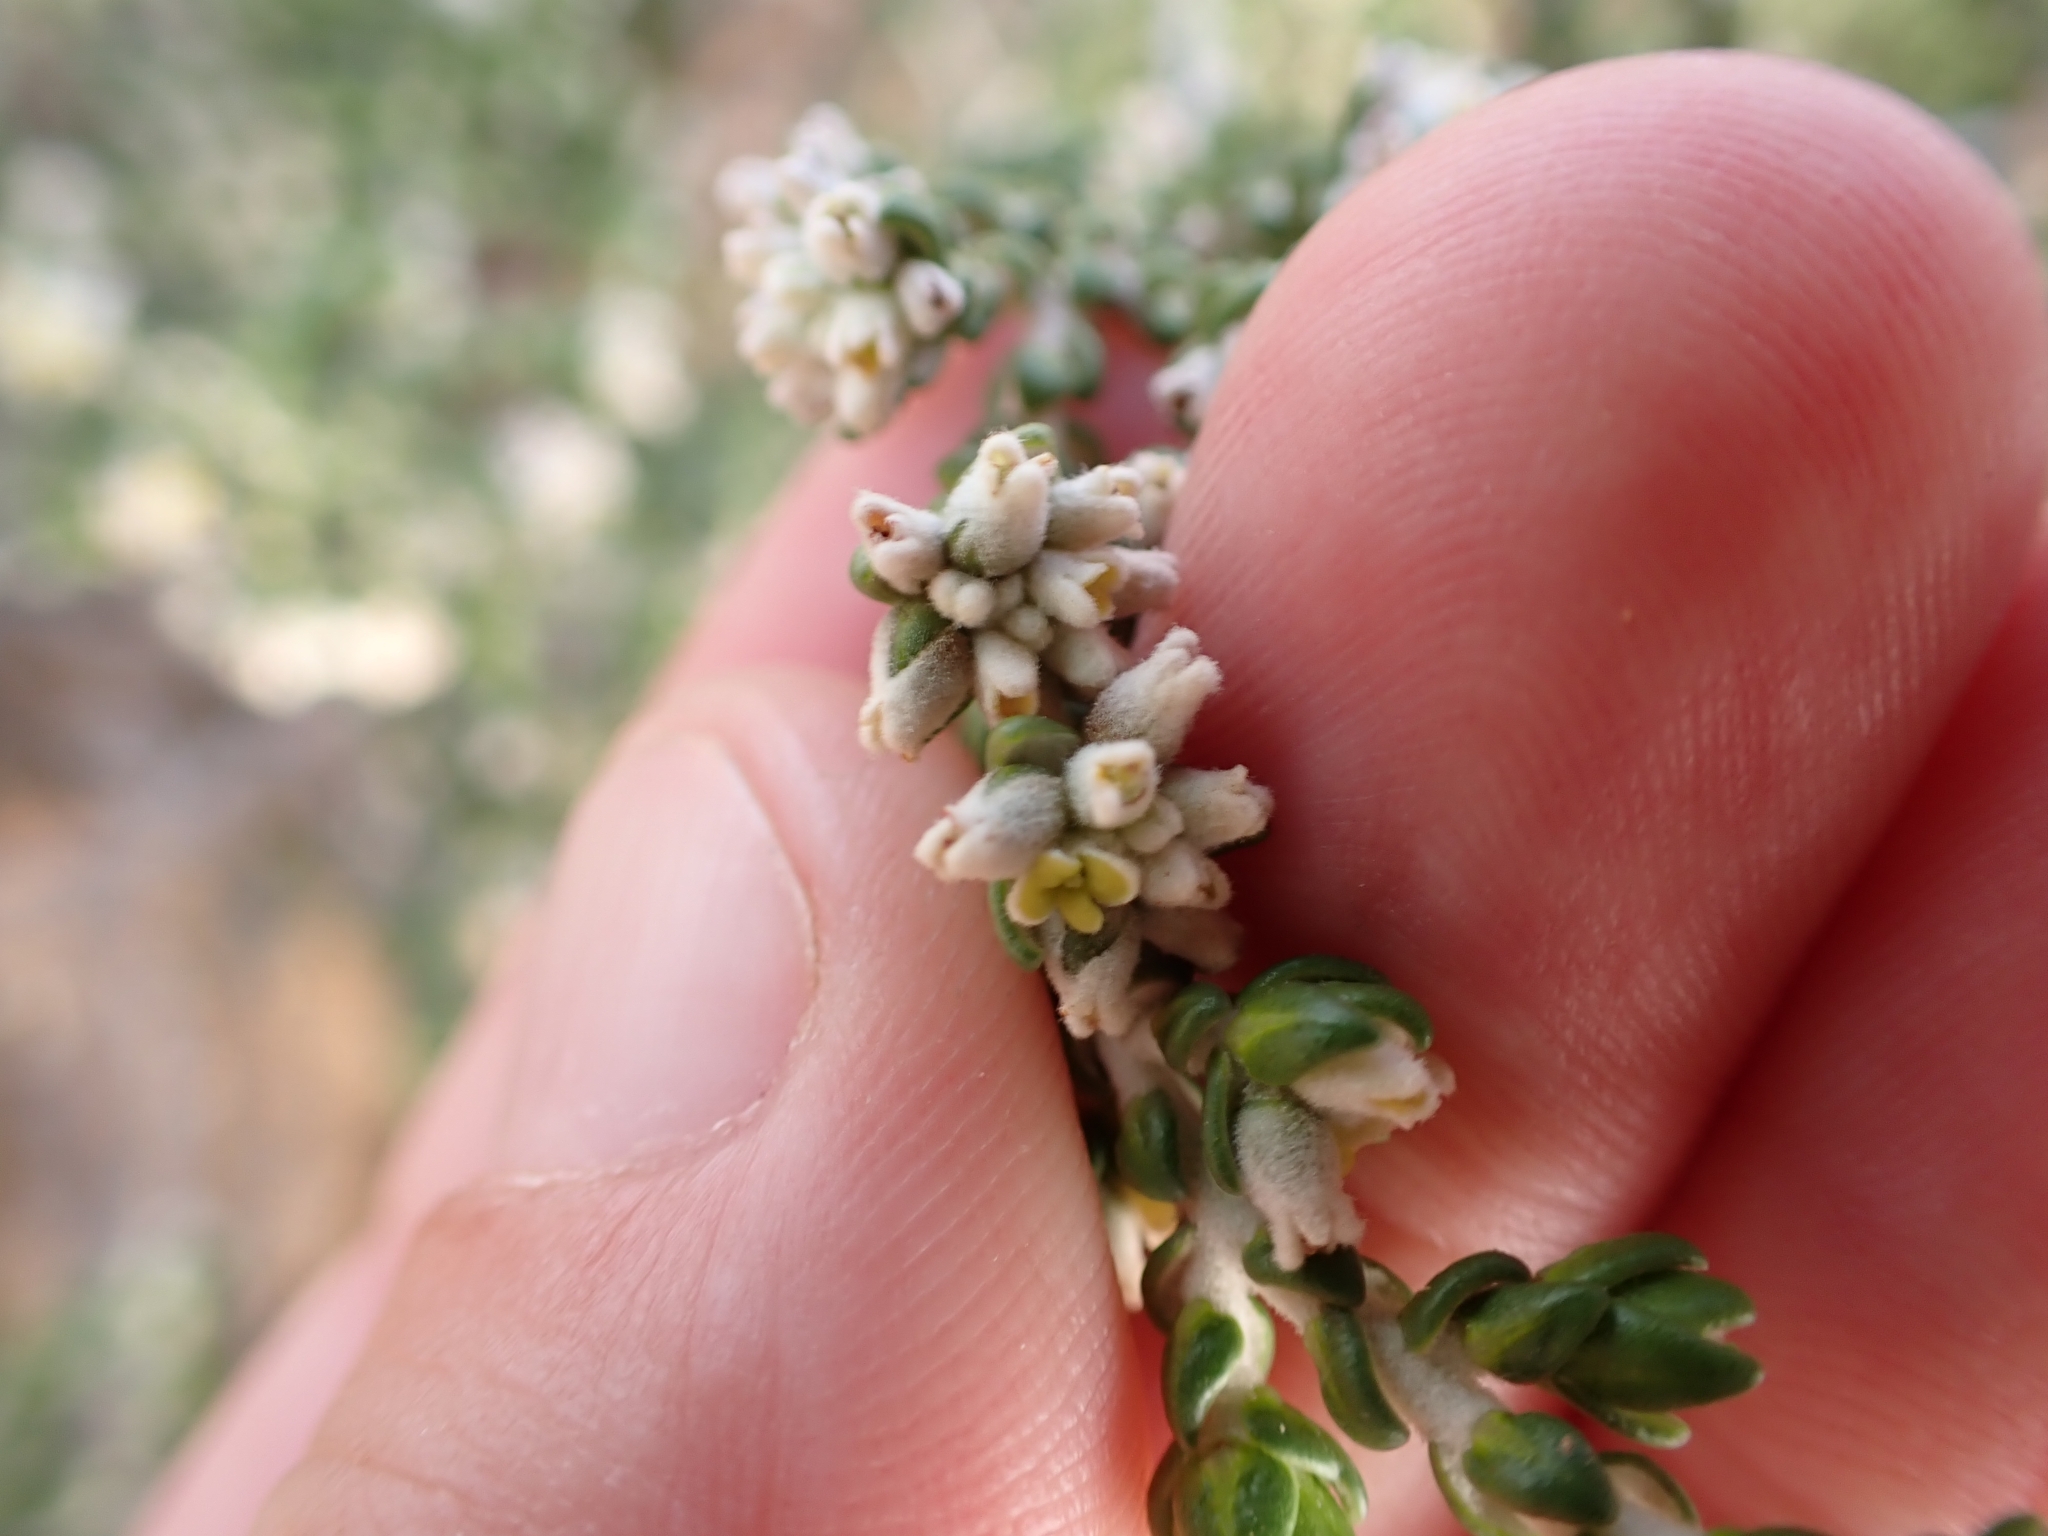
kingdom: Plantae
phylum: Tracheophyta
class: Magnoliopsida
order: Malvales
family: Thymelaeaceae
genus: Thymelaea
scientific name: Thymelaea hirsuta
